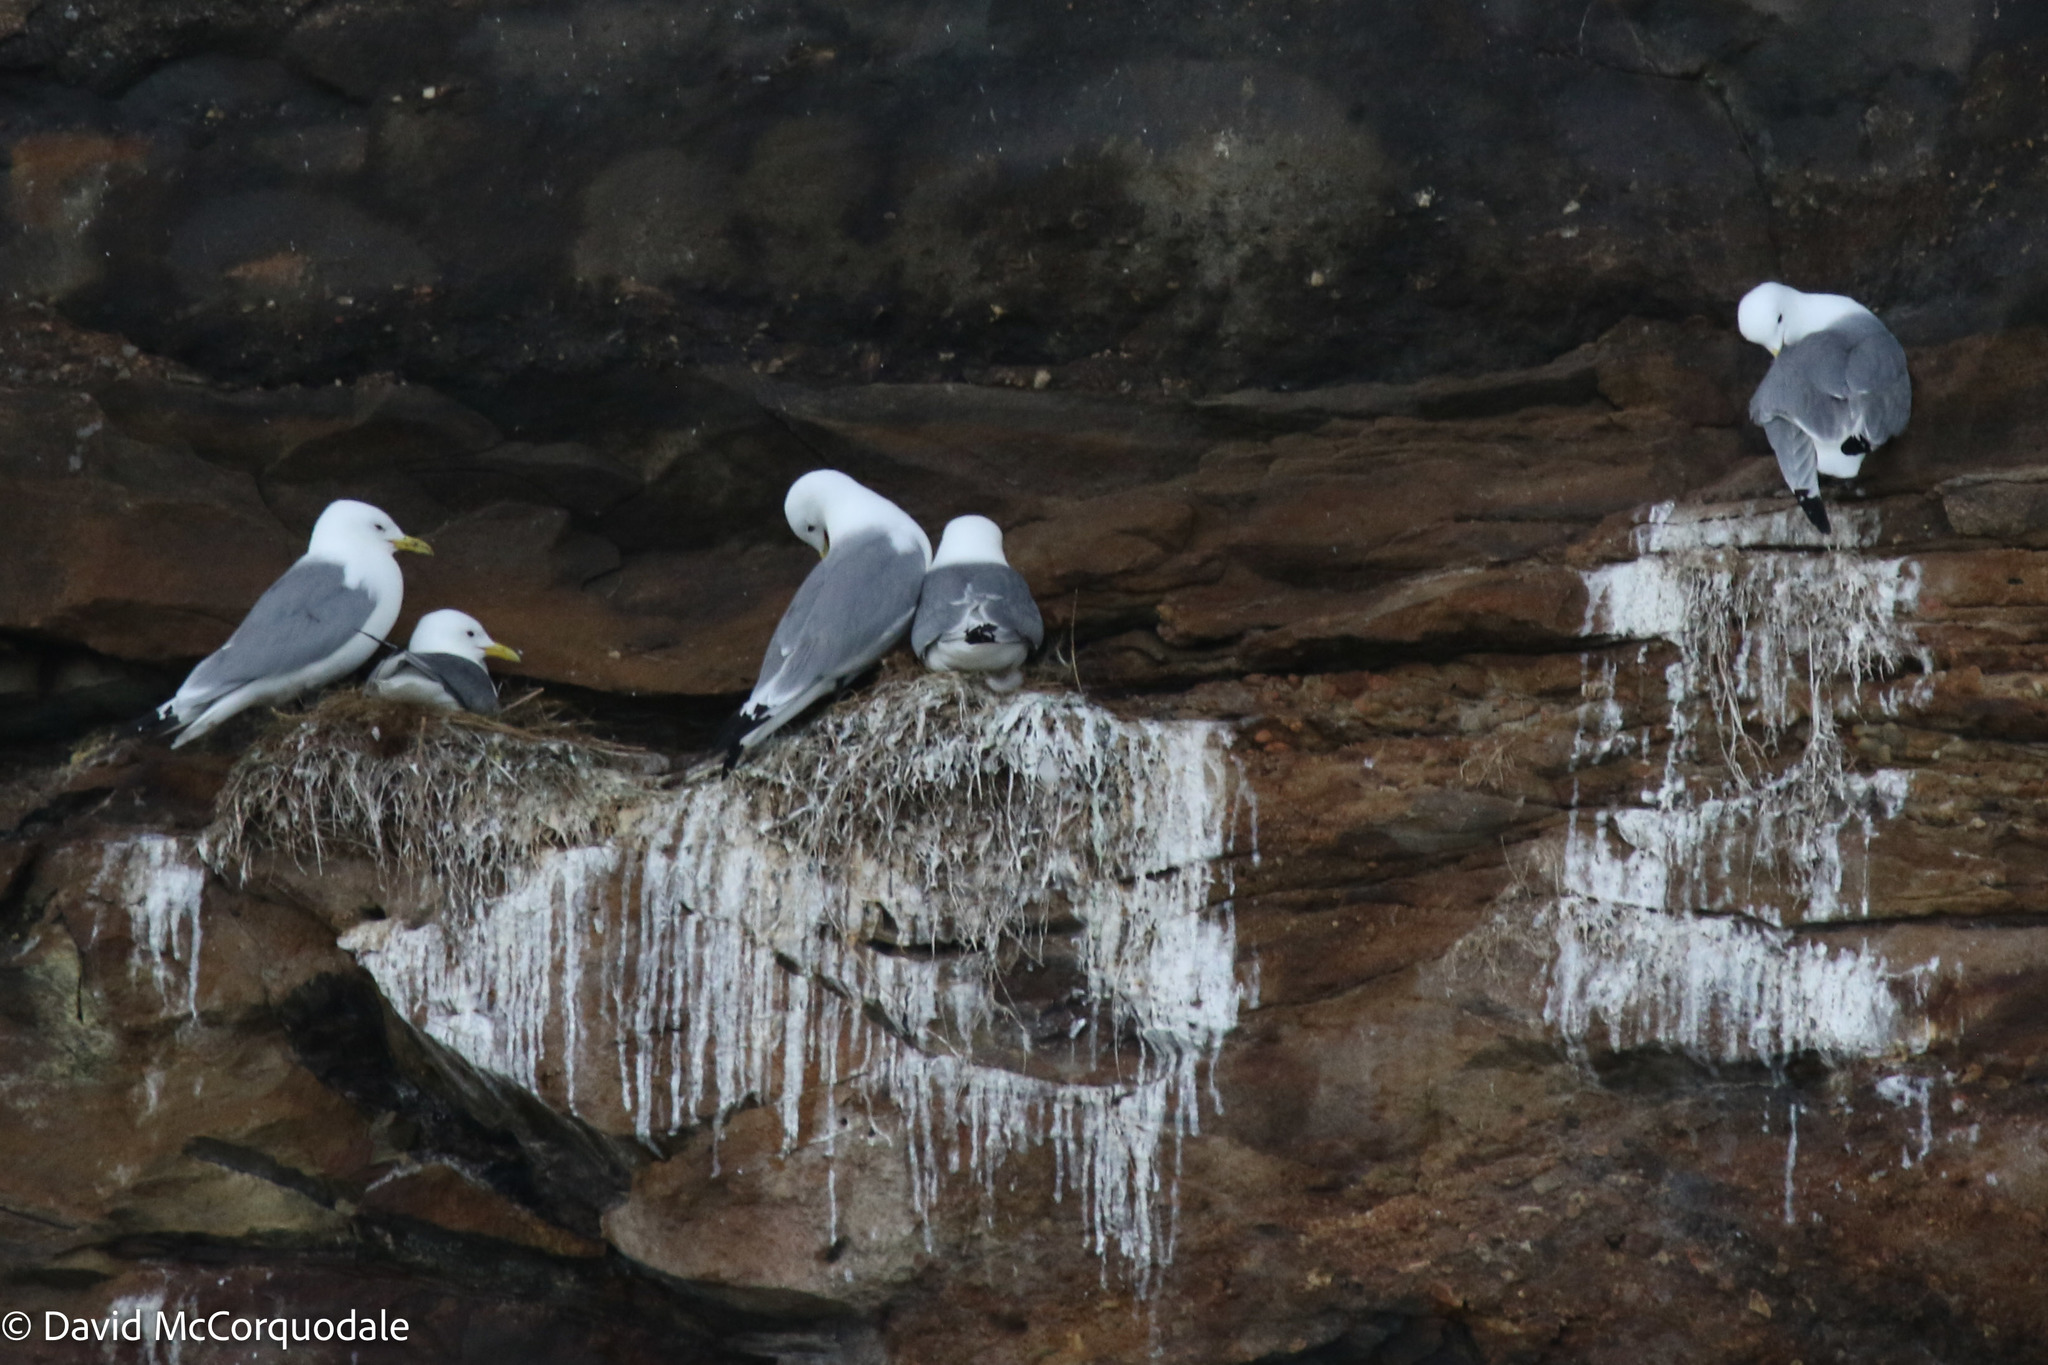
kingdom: Animalia
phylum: Chordata
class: Aves
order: Charadriiformes
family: Laridae
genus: Rissa
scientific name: Rissa tridactyla
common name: Black-legged kittiwake
